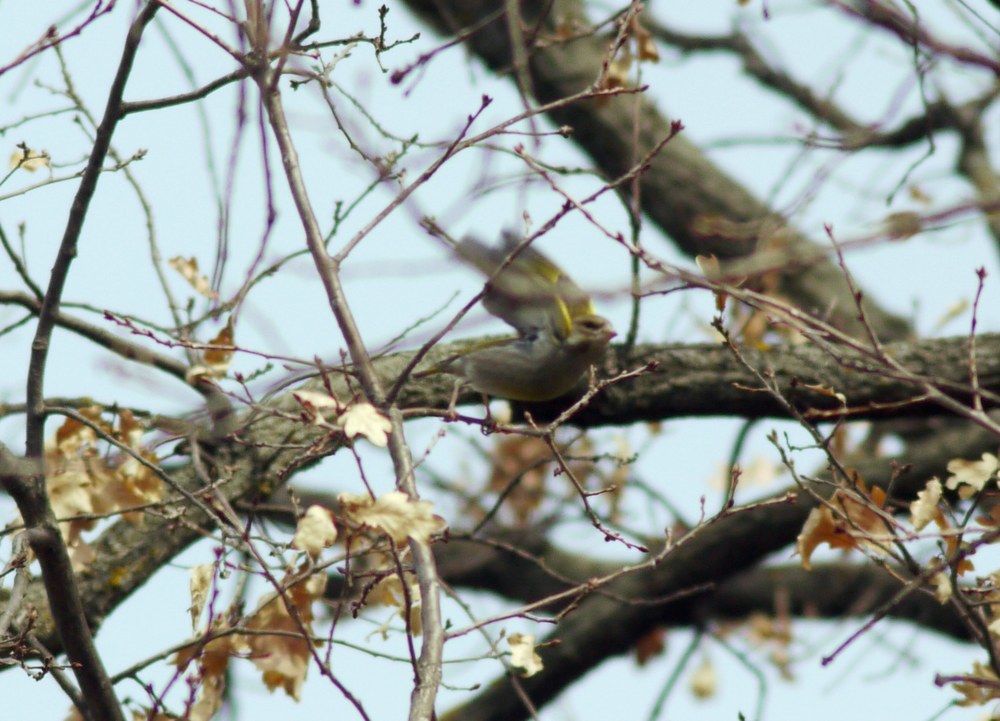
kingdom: Plantae
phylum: Tracheophyta
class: Liliopsida
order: Poales
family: Poaceae
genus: Chloris
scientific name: Chloris chloris
